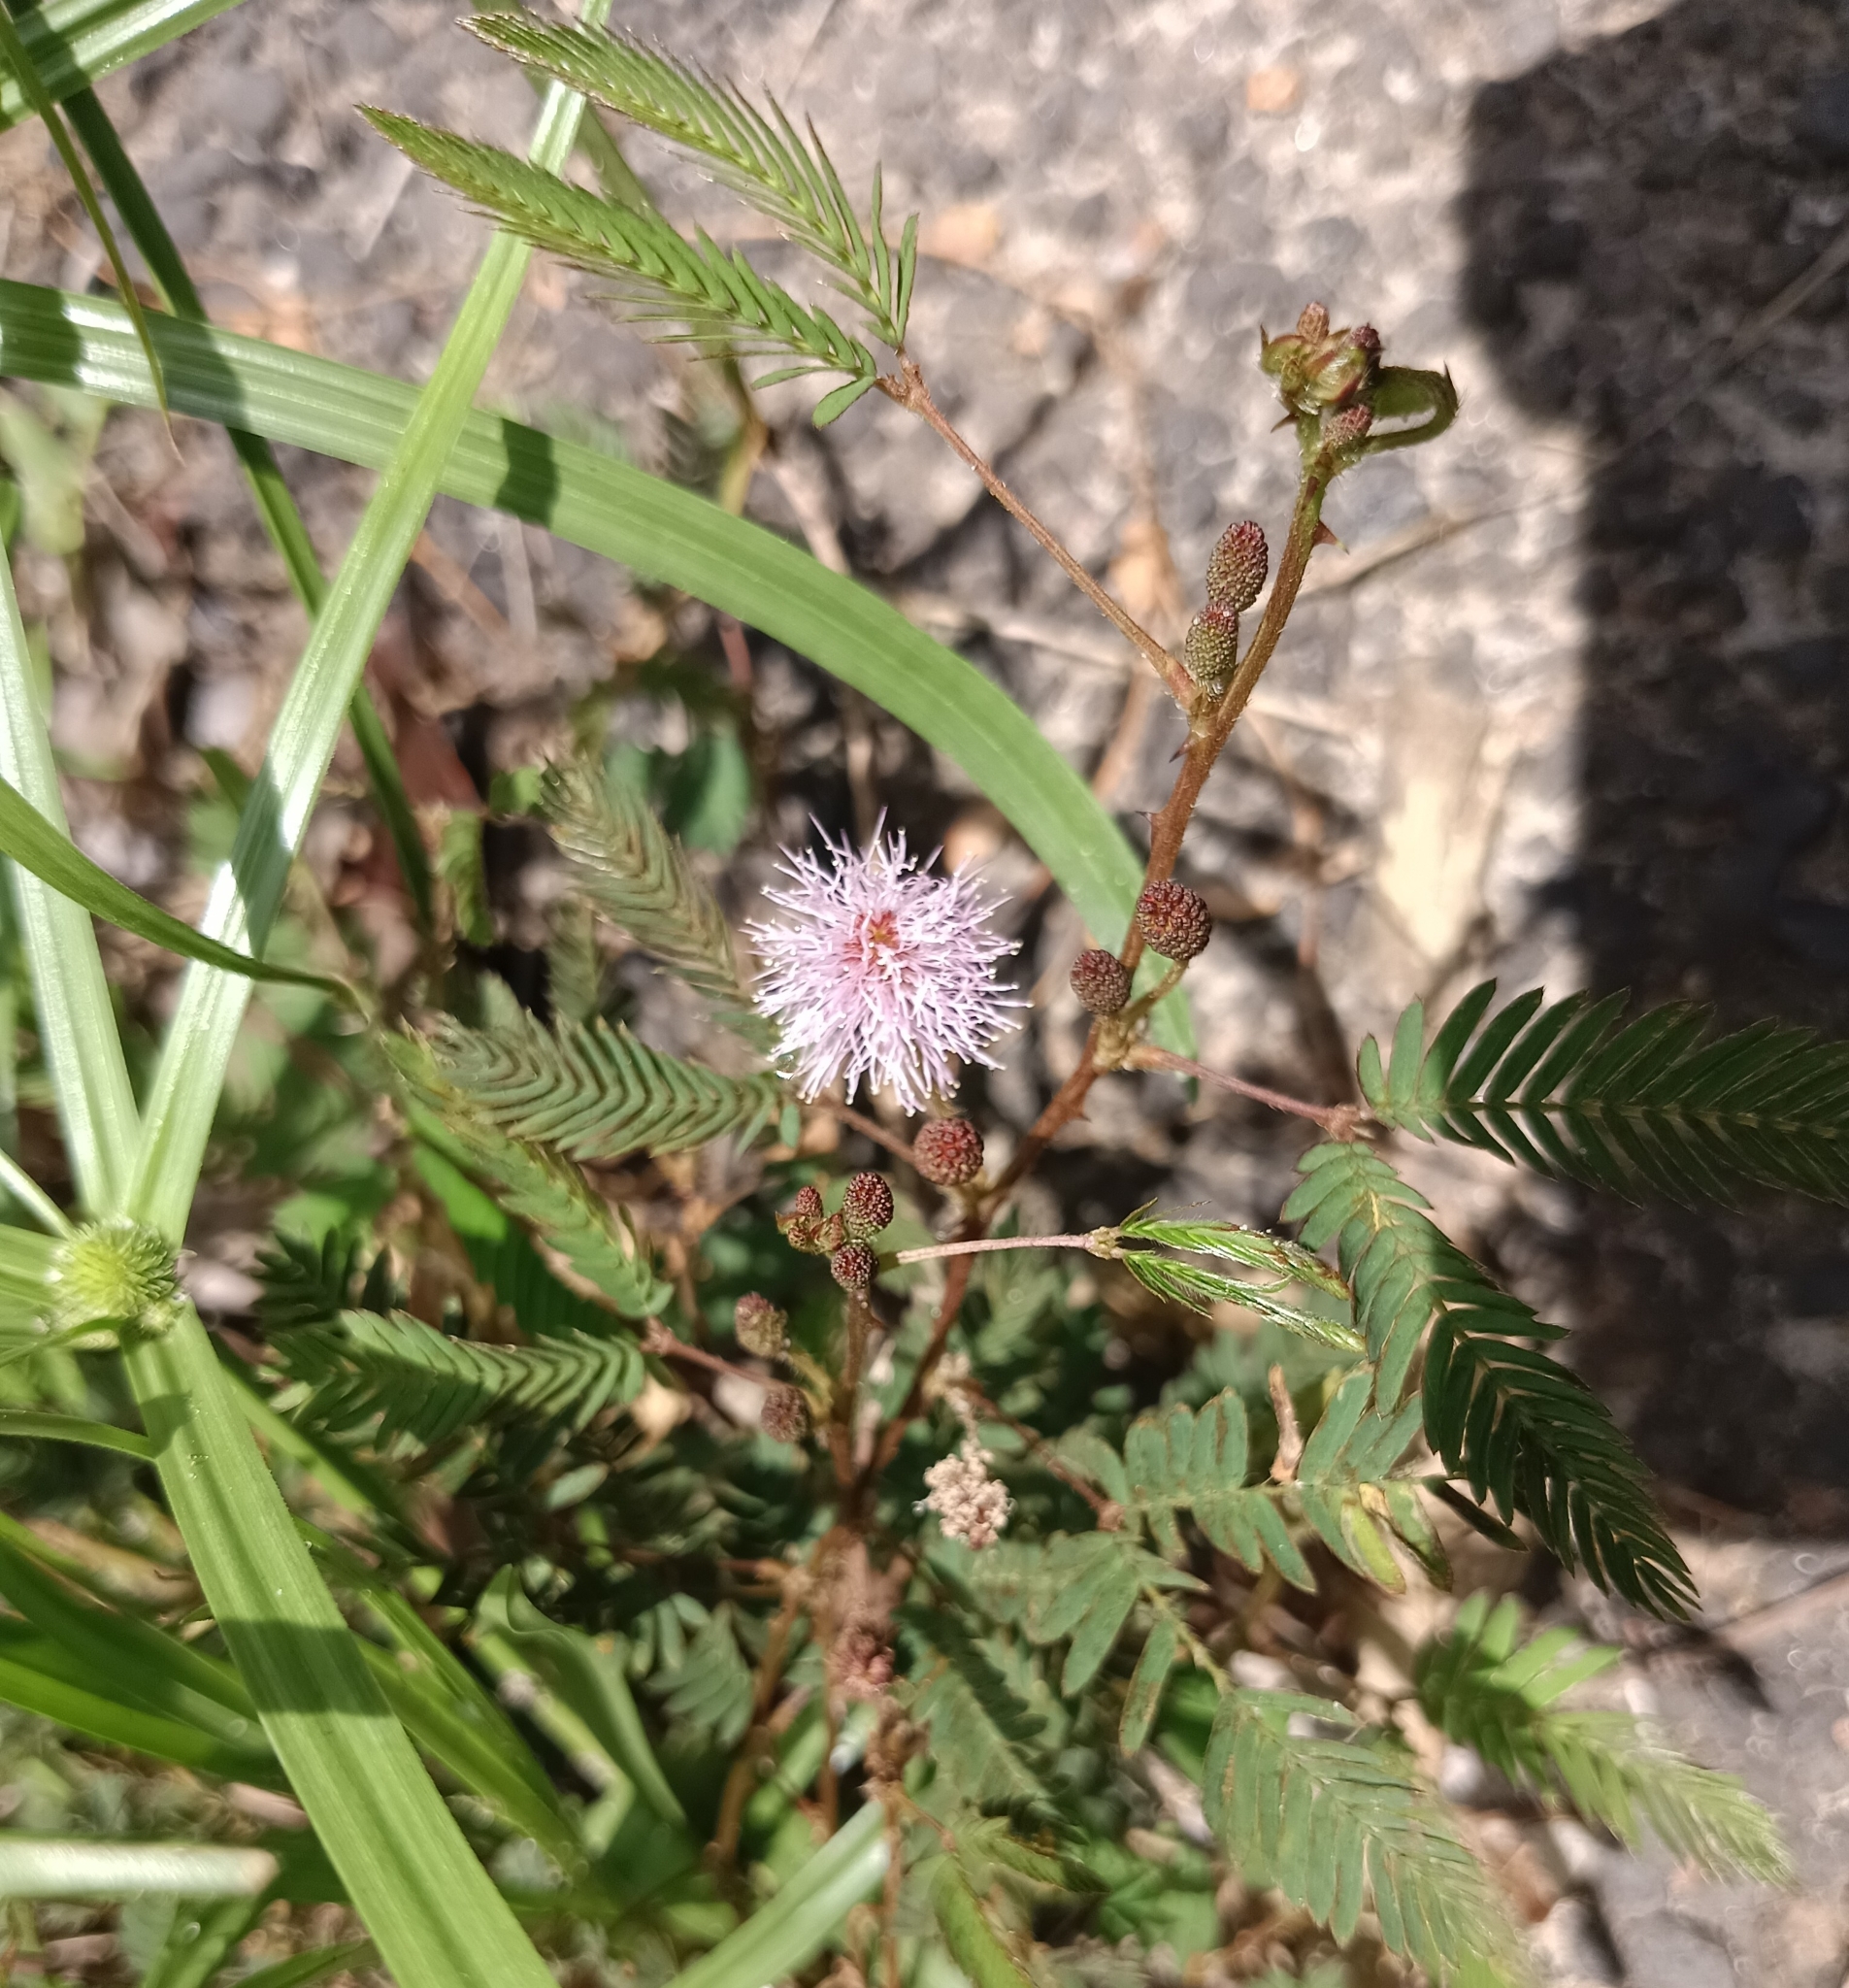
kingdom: Plantae
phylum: Tracheophyta
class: Magnoliopsida
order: Fabales
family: Fabaceae
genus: Mimosa
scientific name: Mimosa pudica
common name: Sensitive plant
